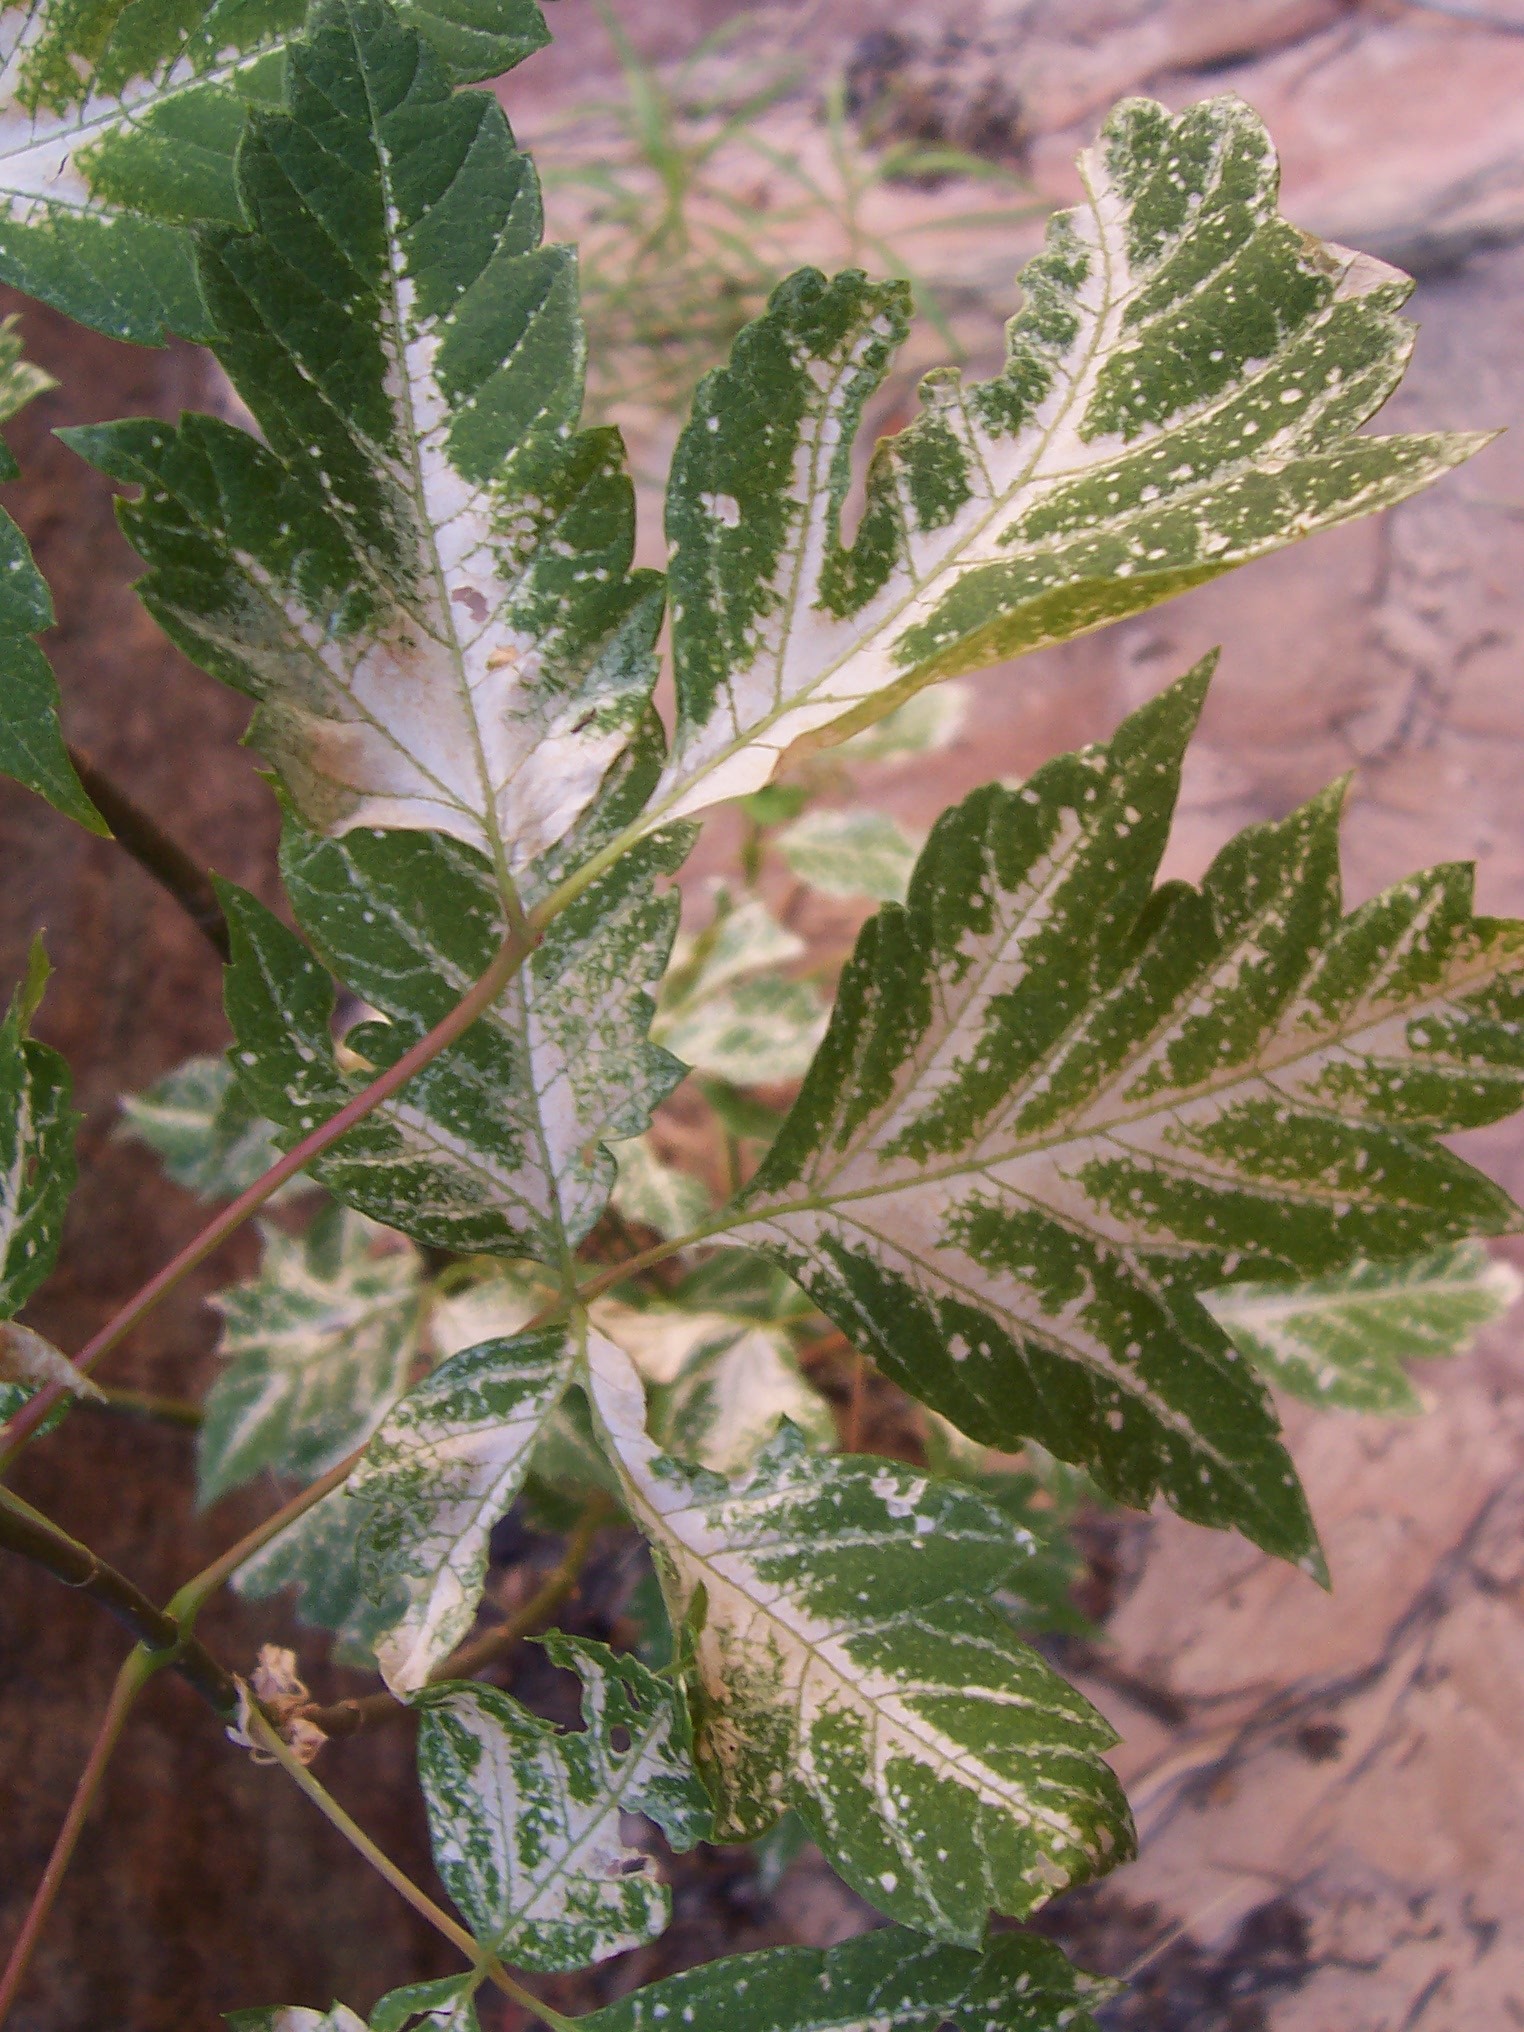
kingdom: Plantae
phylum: Tracheophyta
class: Magnoliopsida
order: Sapindales
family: Sapindaceae
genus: Acer
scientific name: Acer negundo
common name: Ashleaf maple
